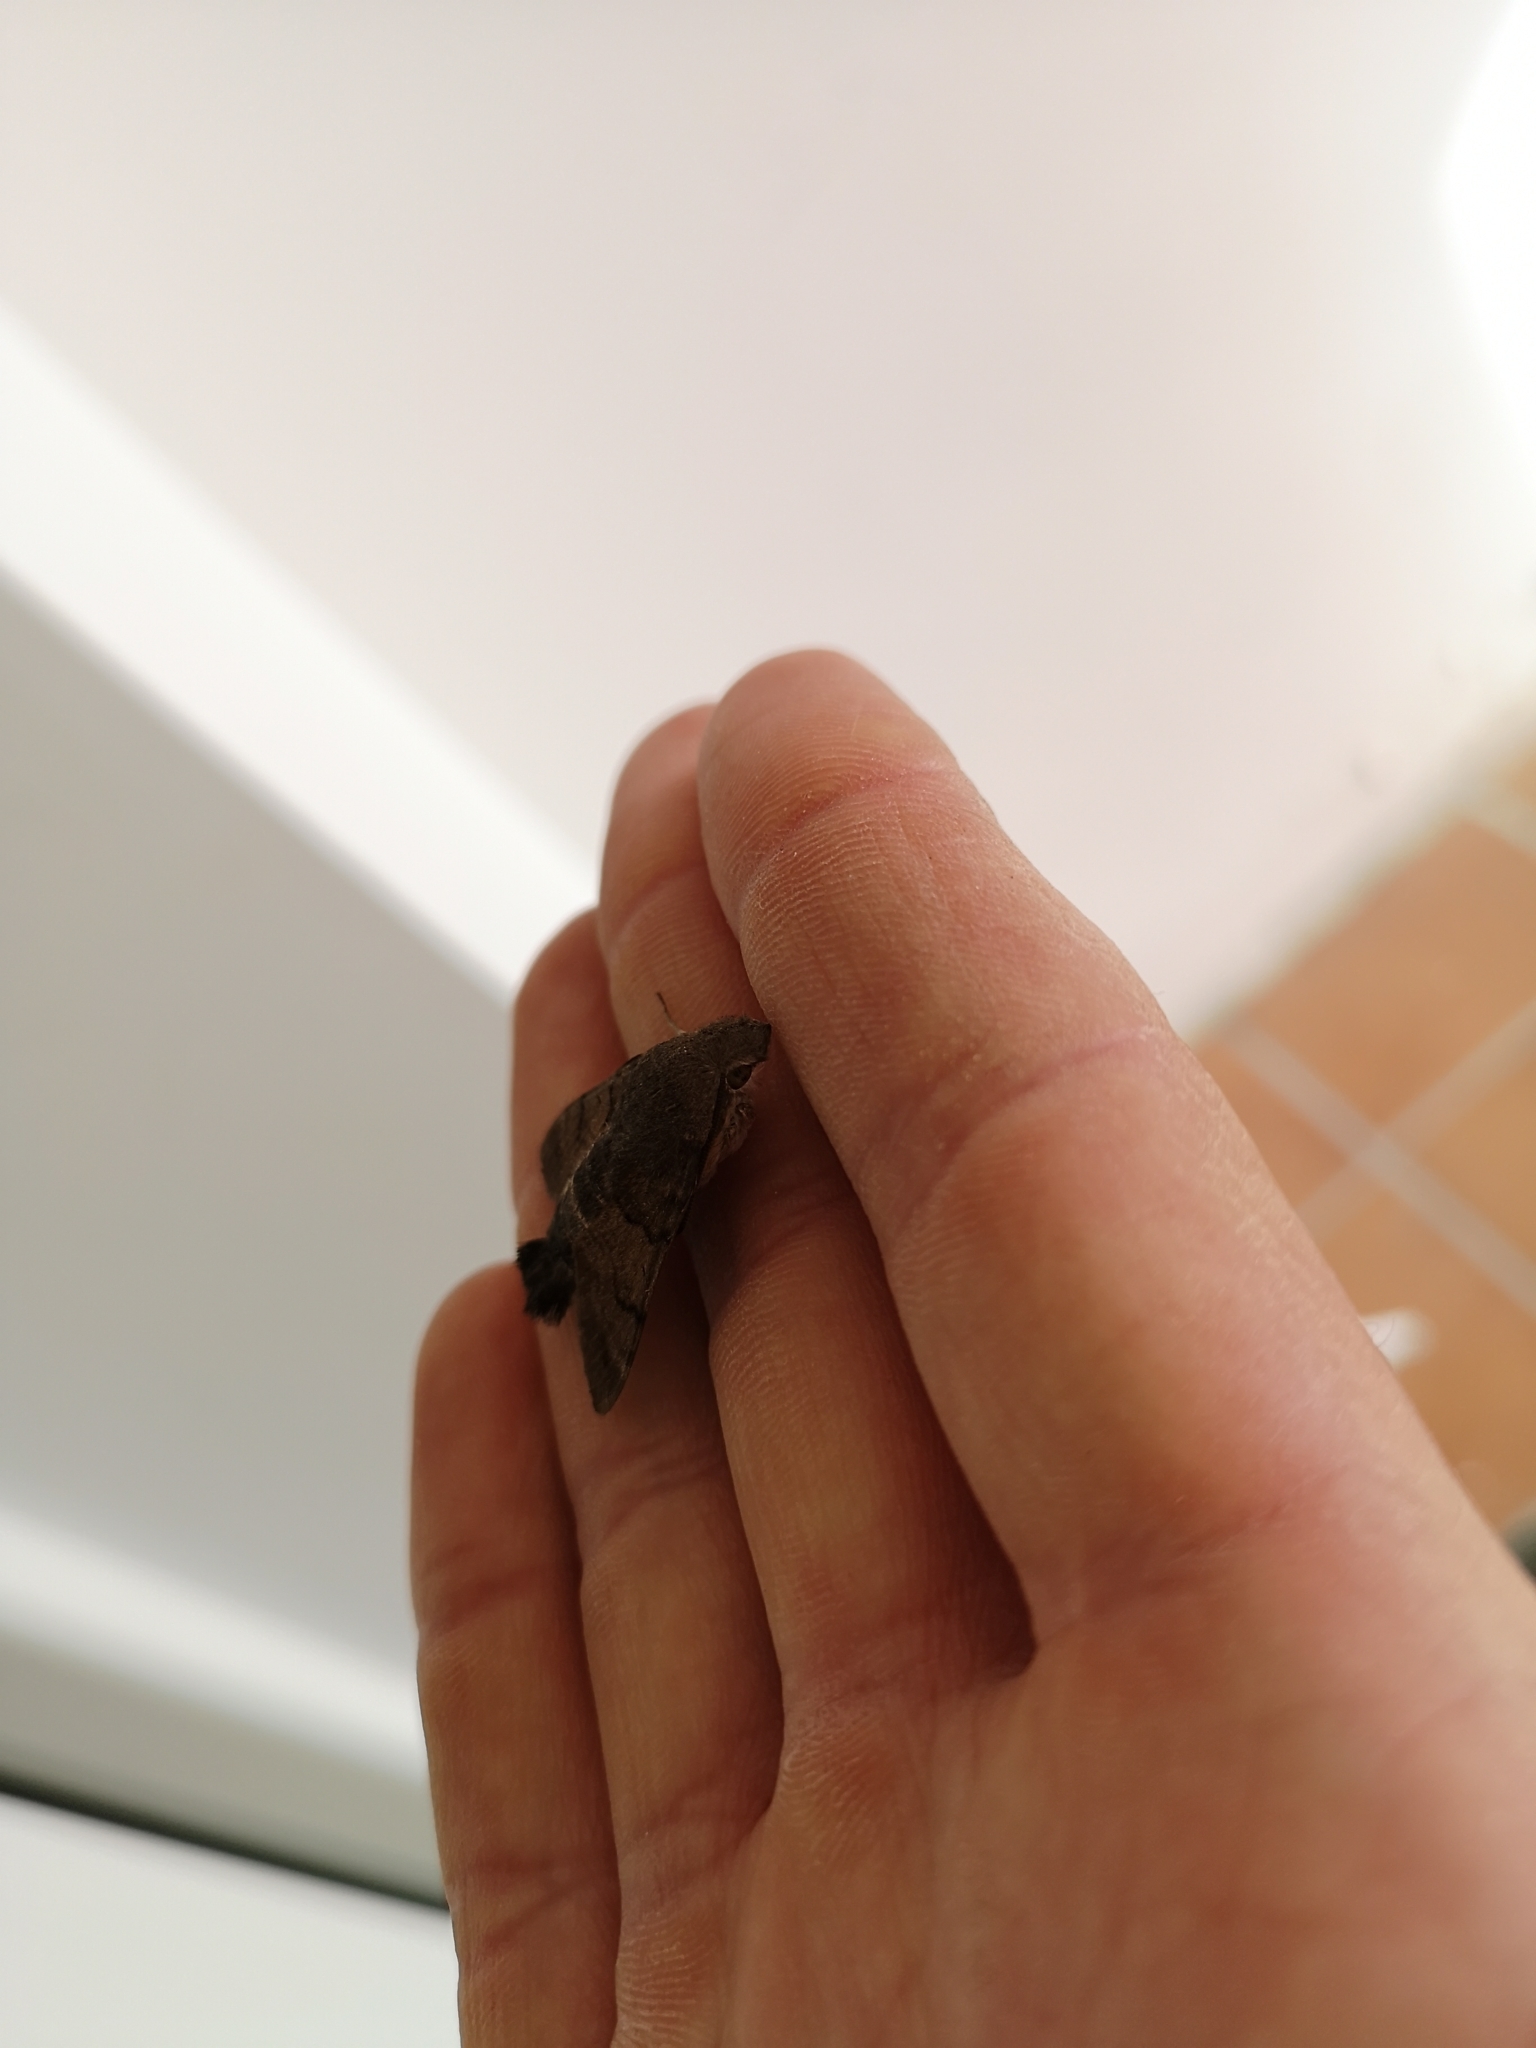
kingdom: Animalia
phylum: Arthropoda
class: Insecta
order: Lepidoptera
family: Sphingidae
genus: Macroglossum
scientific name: Macroglossum stellatarum
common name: Humming-bird hawk-moth
